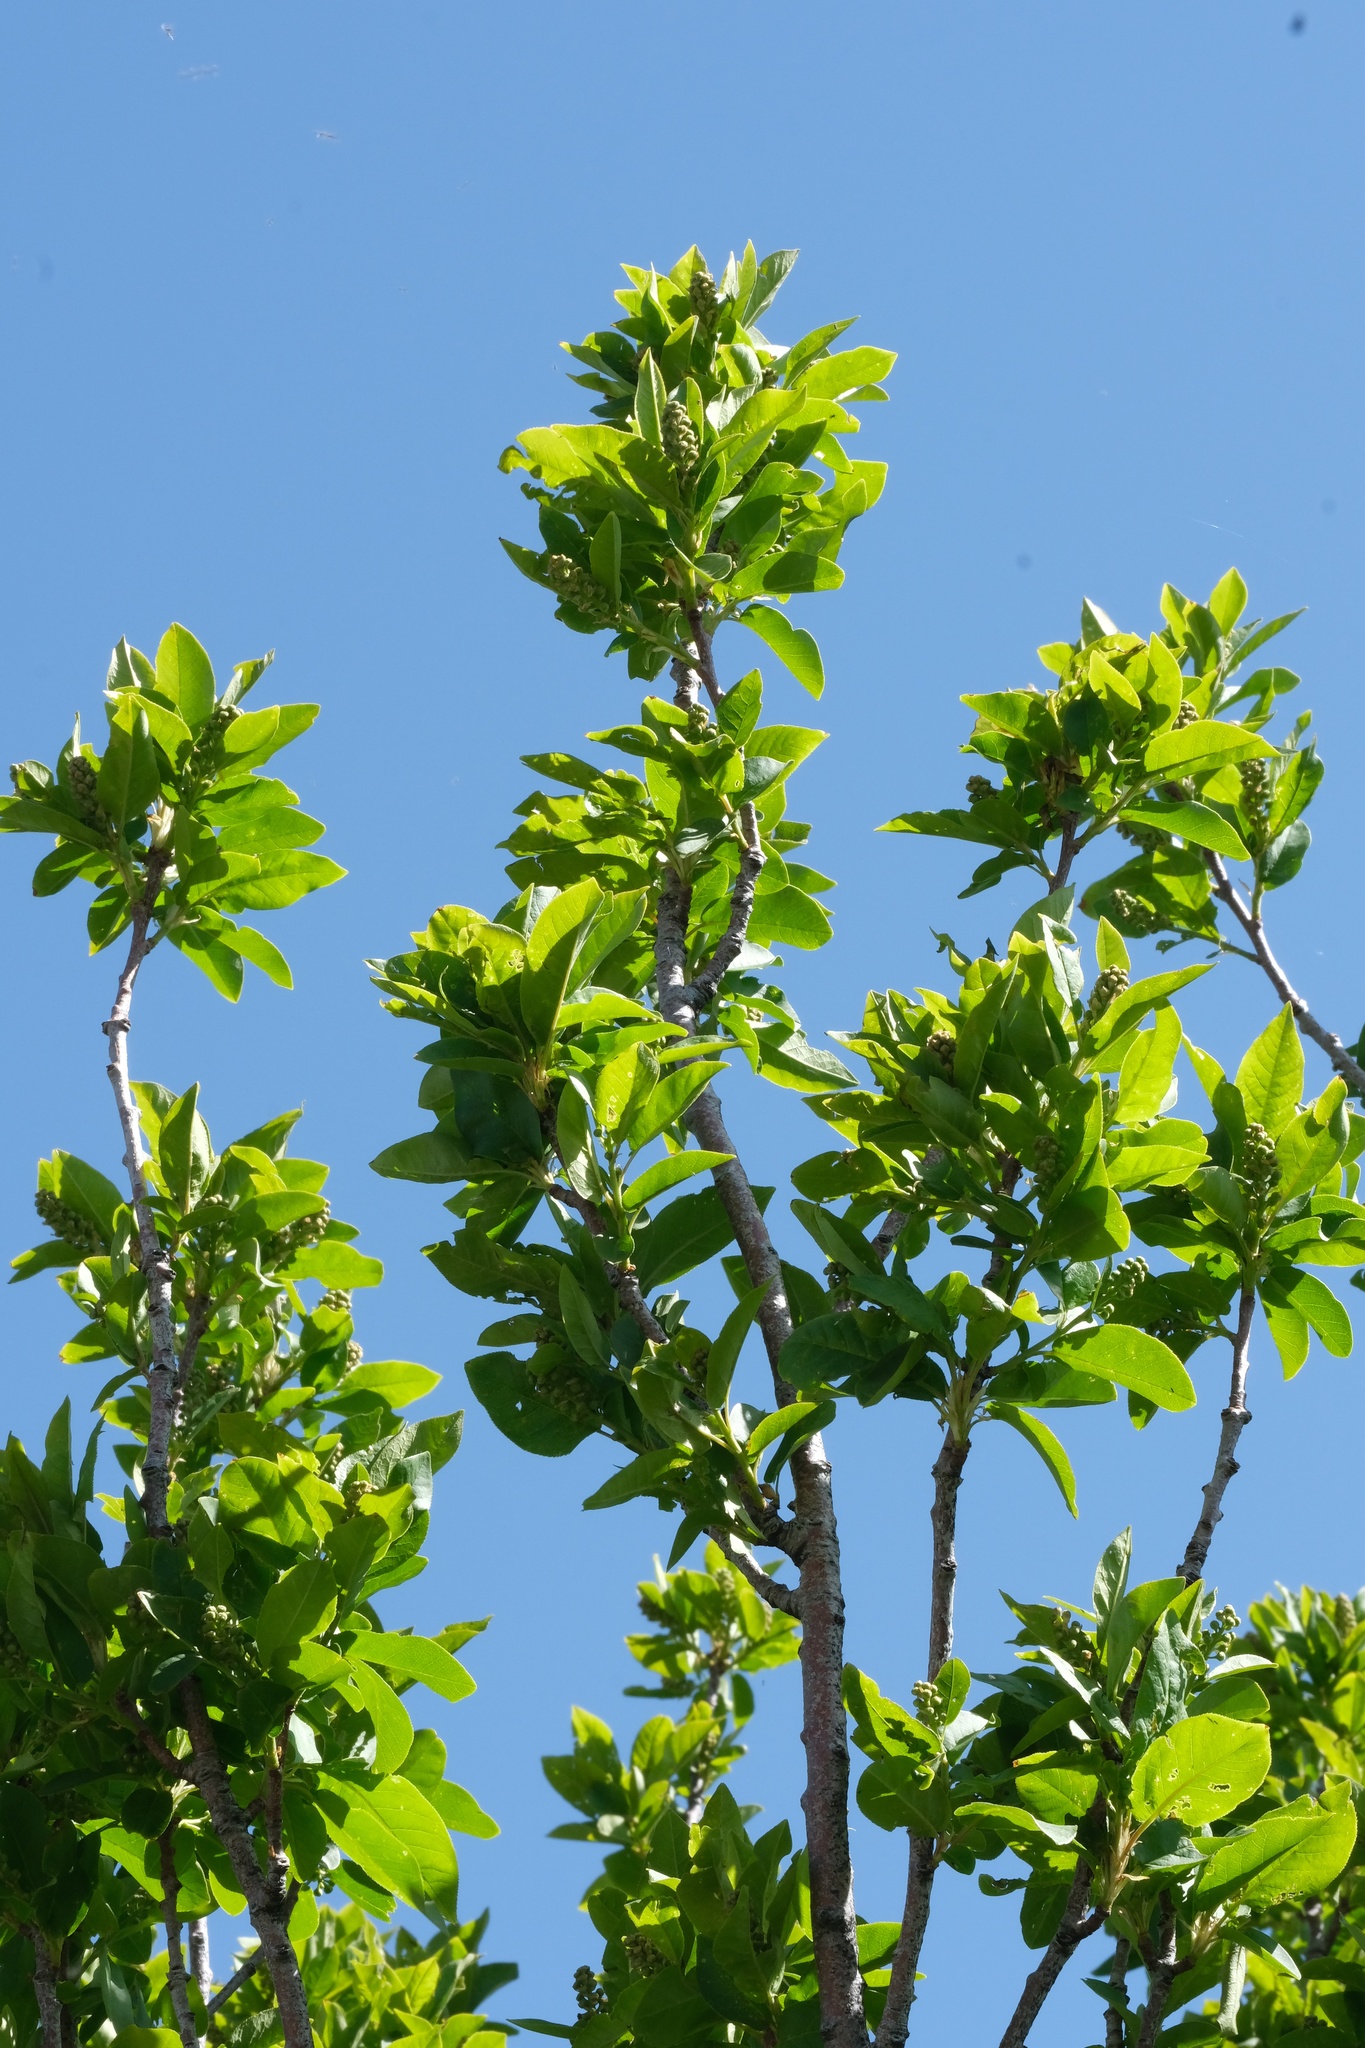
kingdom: Plantae
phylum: Tracheophyta
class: Magnoliopsida
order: Rosales
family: Rosaceae
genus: Prunus
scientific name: Prunus virginiana
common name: Chokecherry
